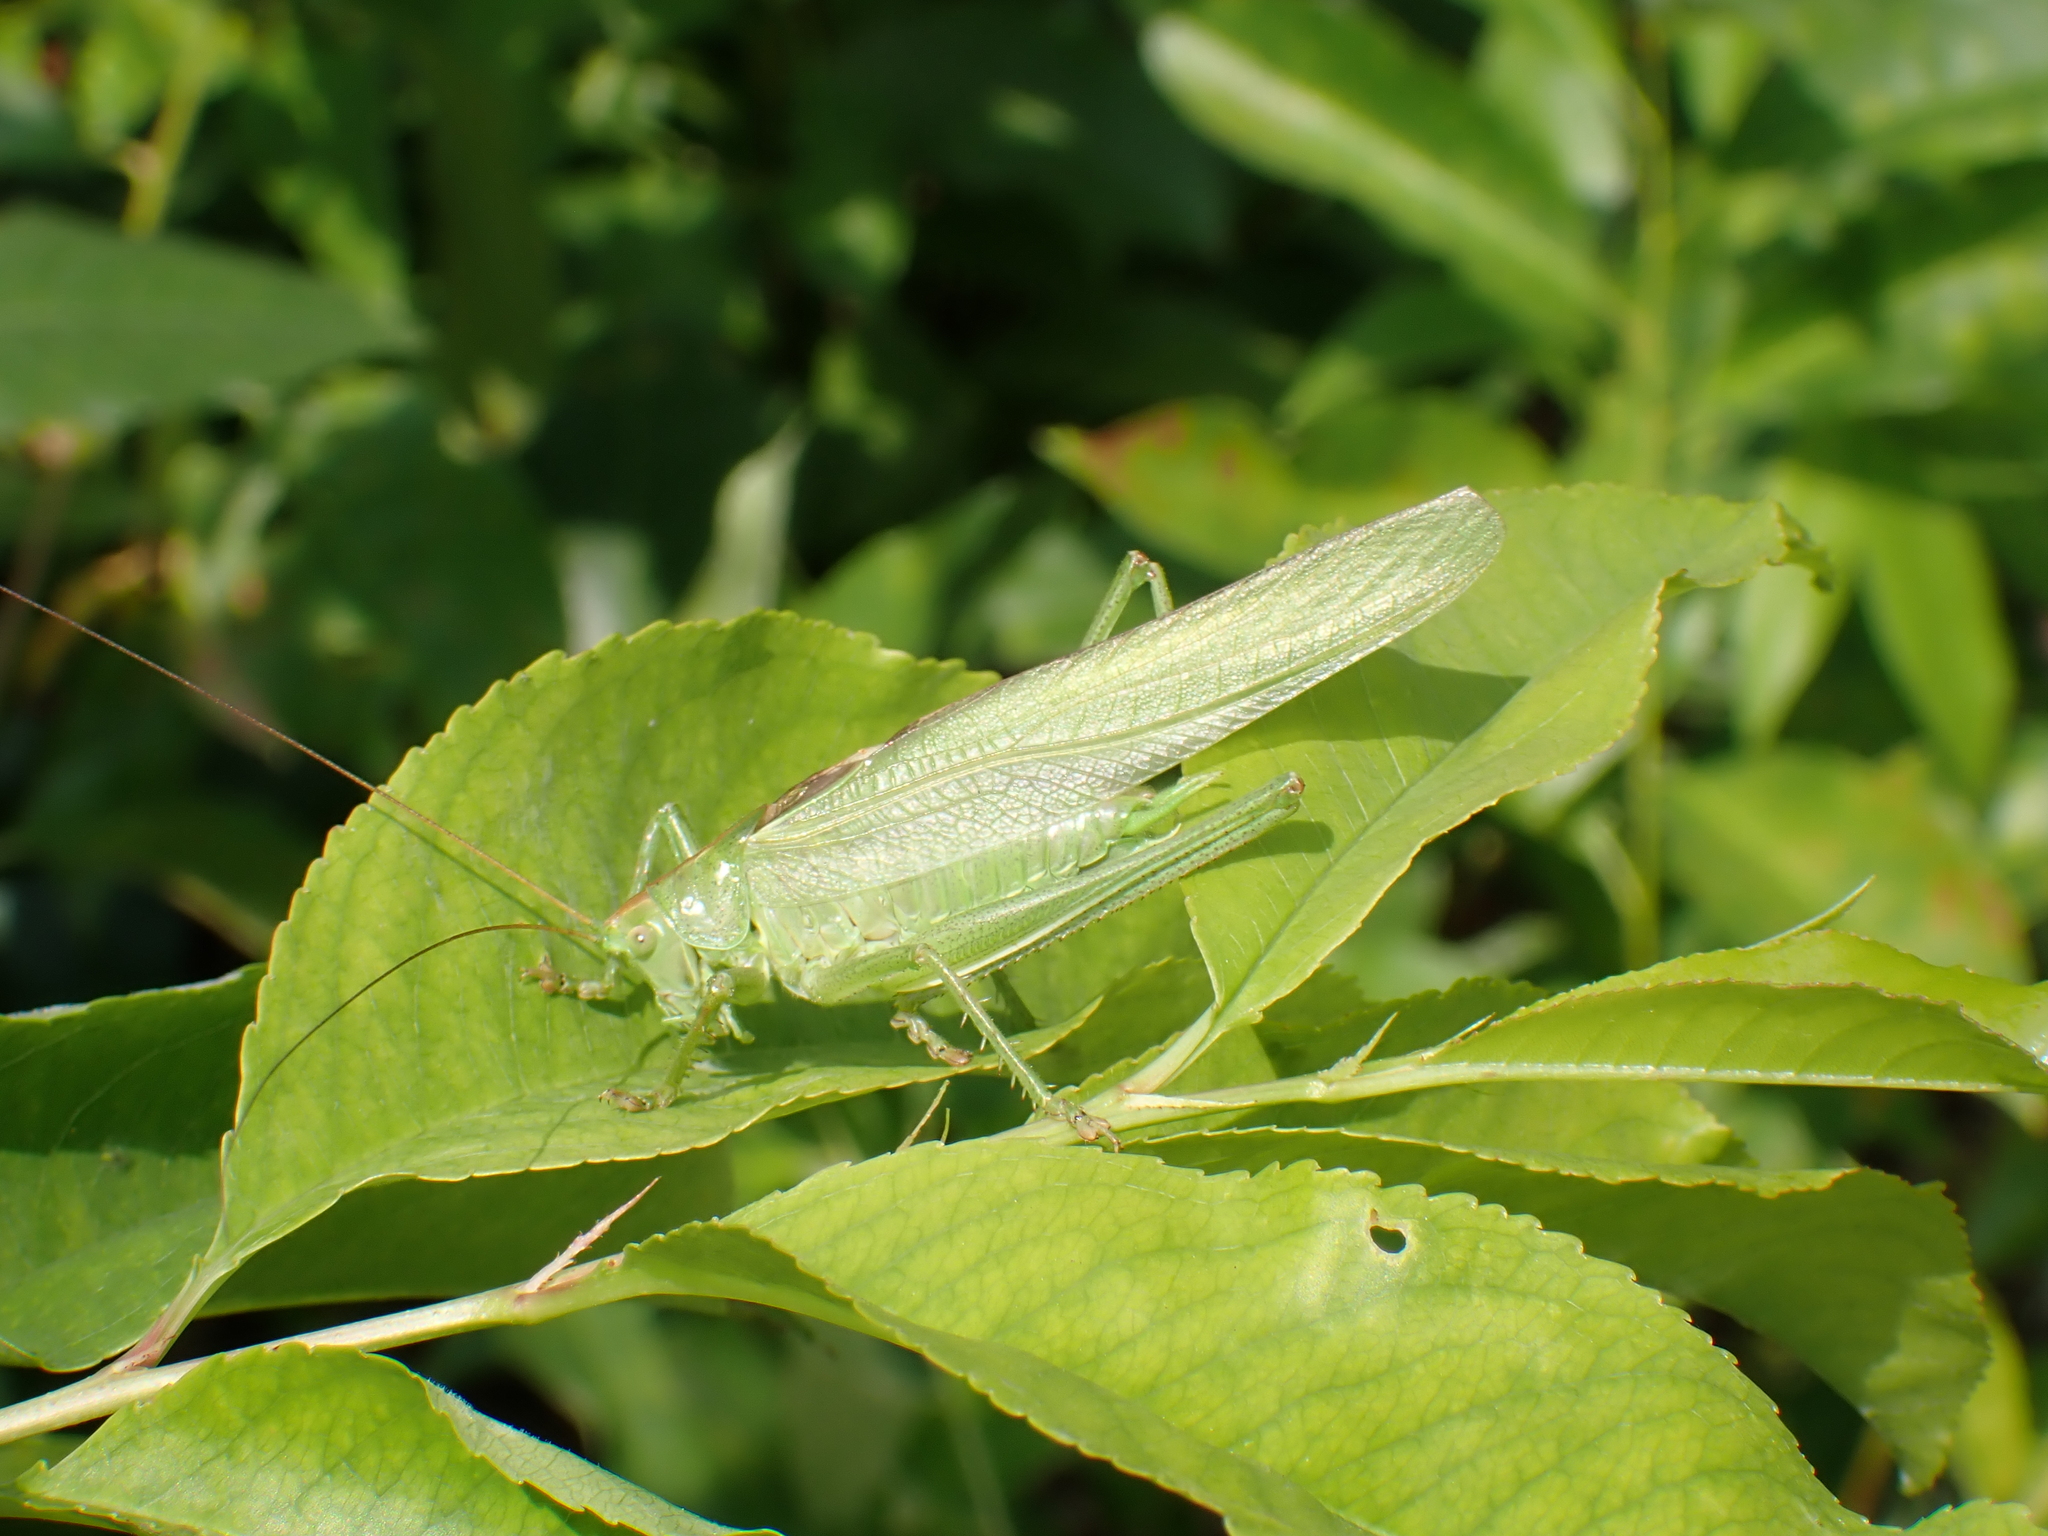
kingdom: Animalia
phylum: Arthropoda
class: Insecta
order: Orthoptera
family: Tettigoniidae
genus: Tettigonia
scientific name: Tettigonia viridissima
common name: Great green bush-cricket
